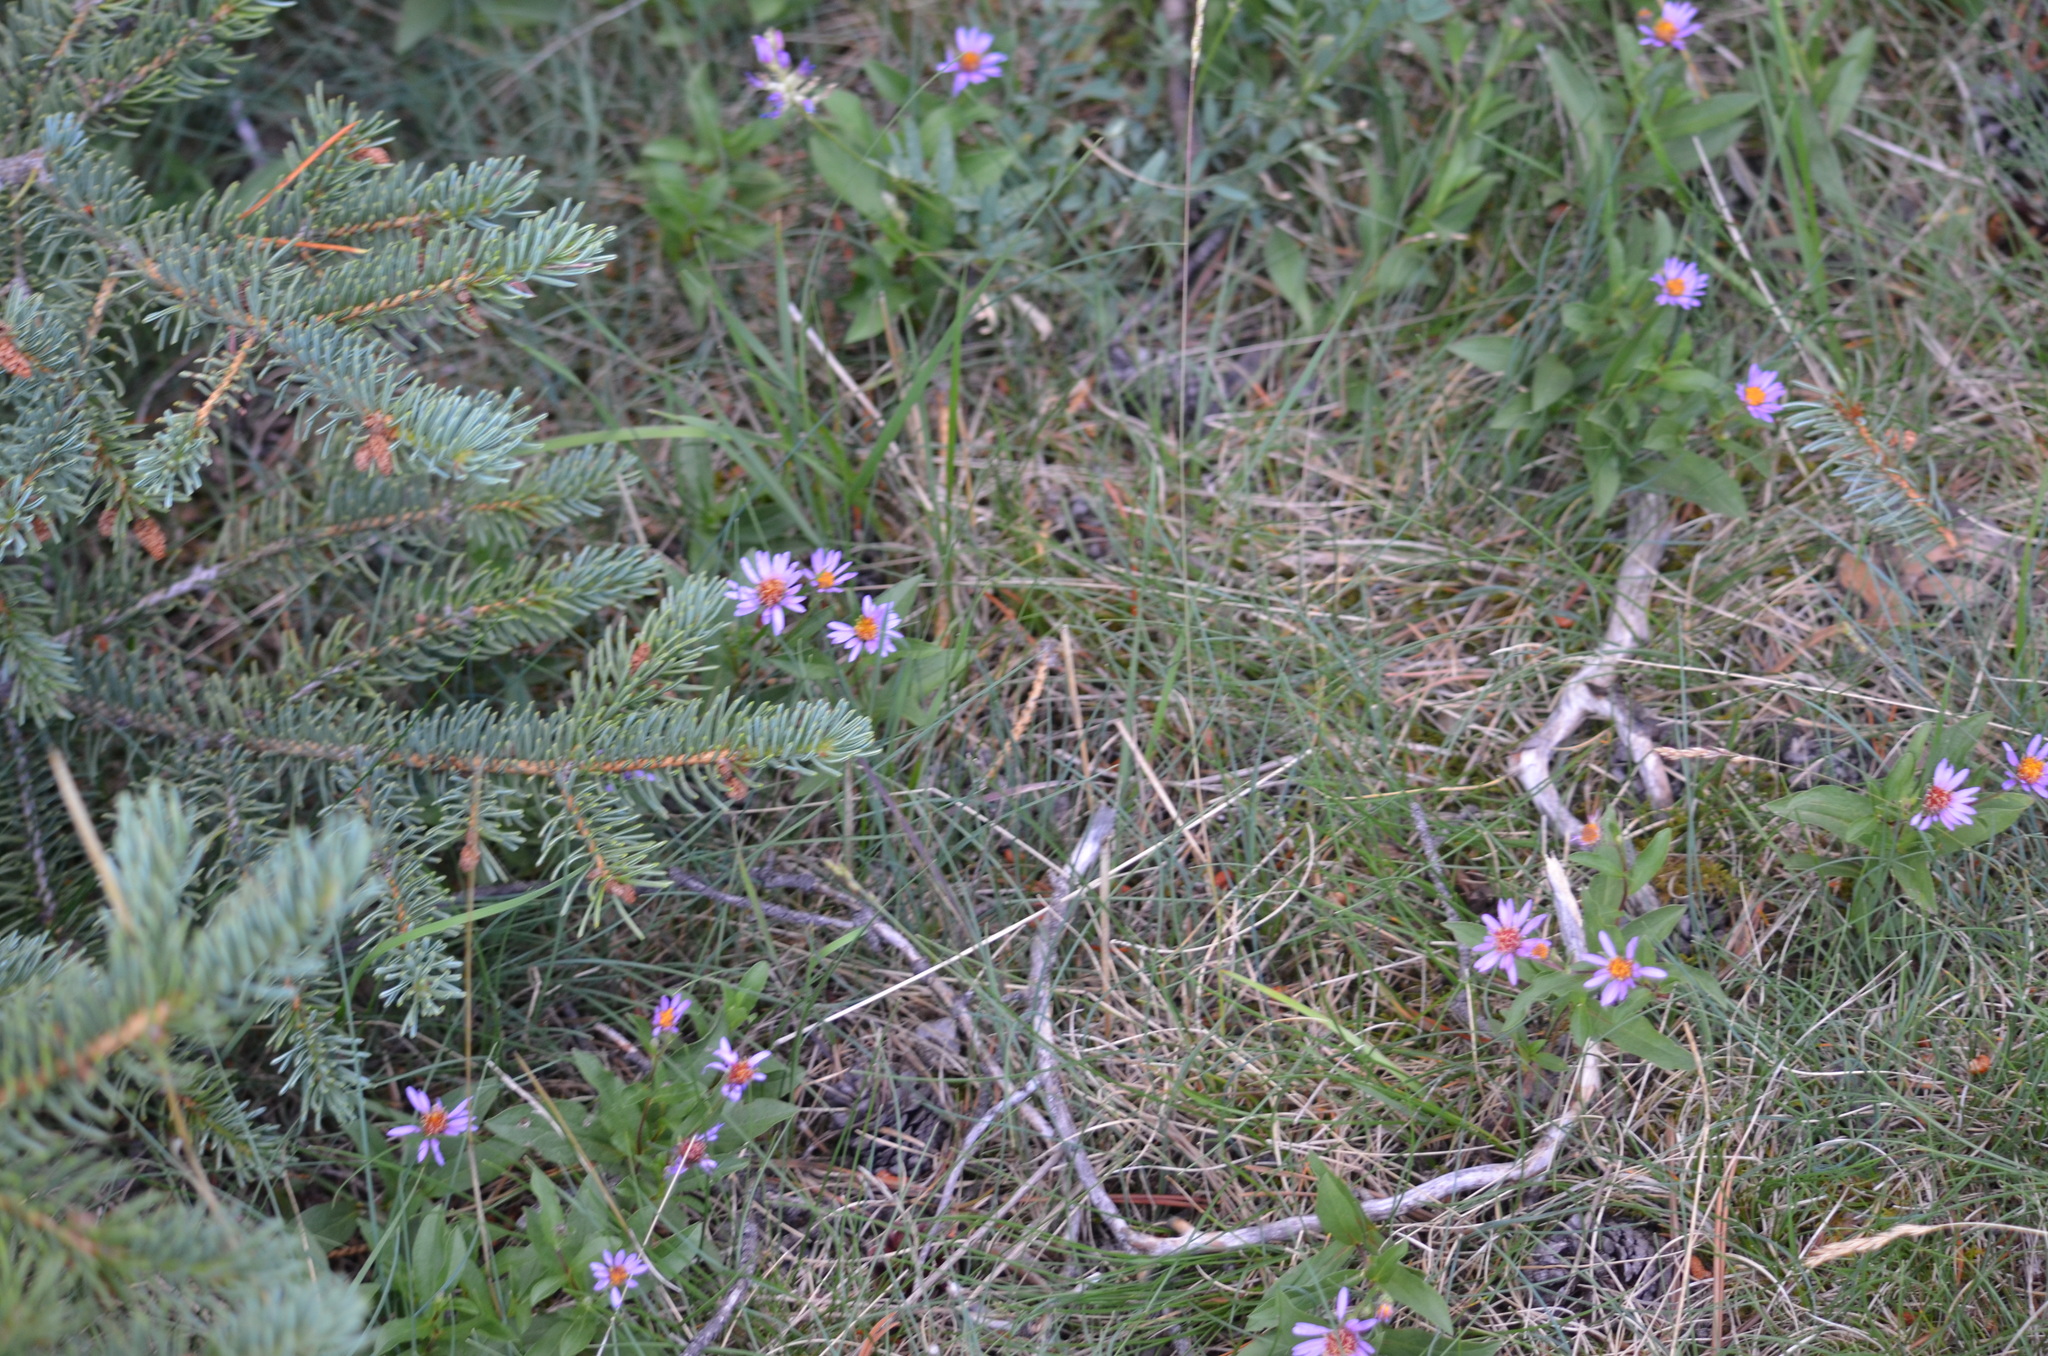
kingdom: Plantae
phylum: Tracheophyta
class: Magnoliopsida
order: Asterales
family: Asteraceae
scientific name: Asteraceae
